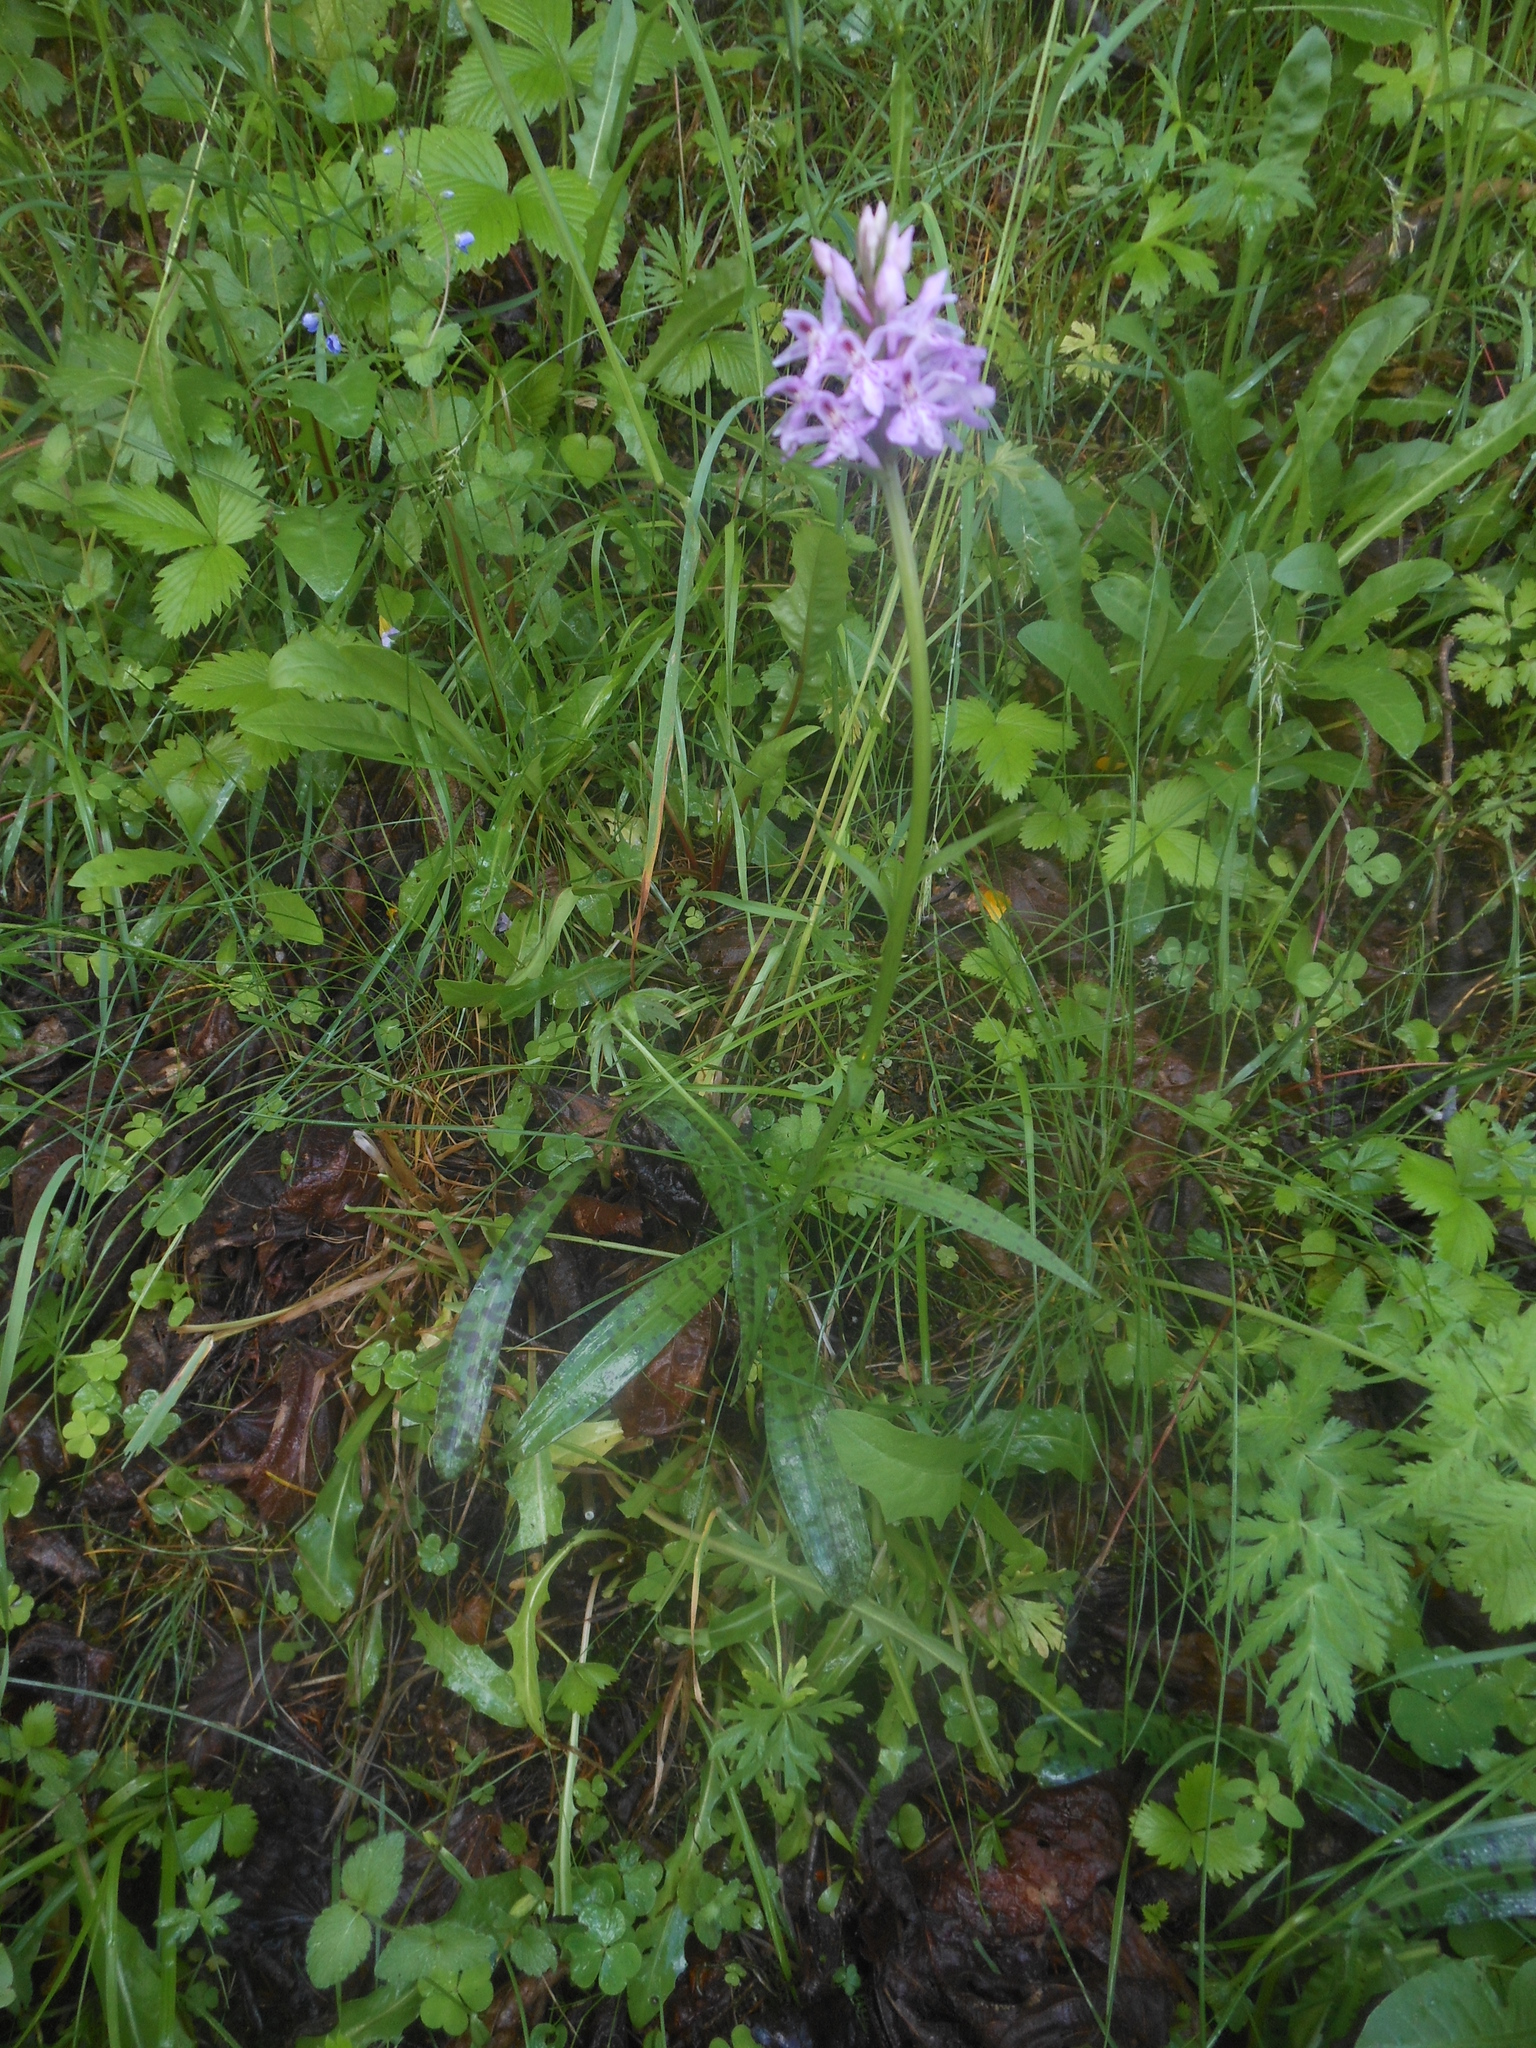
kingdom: Plantae
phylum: Tracheophyta
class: Liliopsida
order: Asparagales
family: Orchidaceae
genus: Dactylorhiza
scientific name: Dactylorhiza maculata
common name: Heath spotted-orchid
